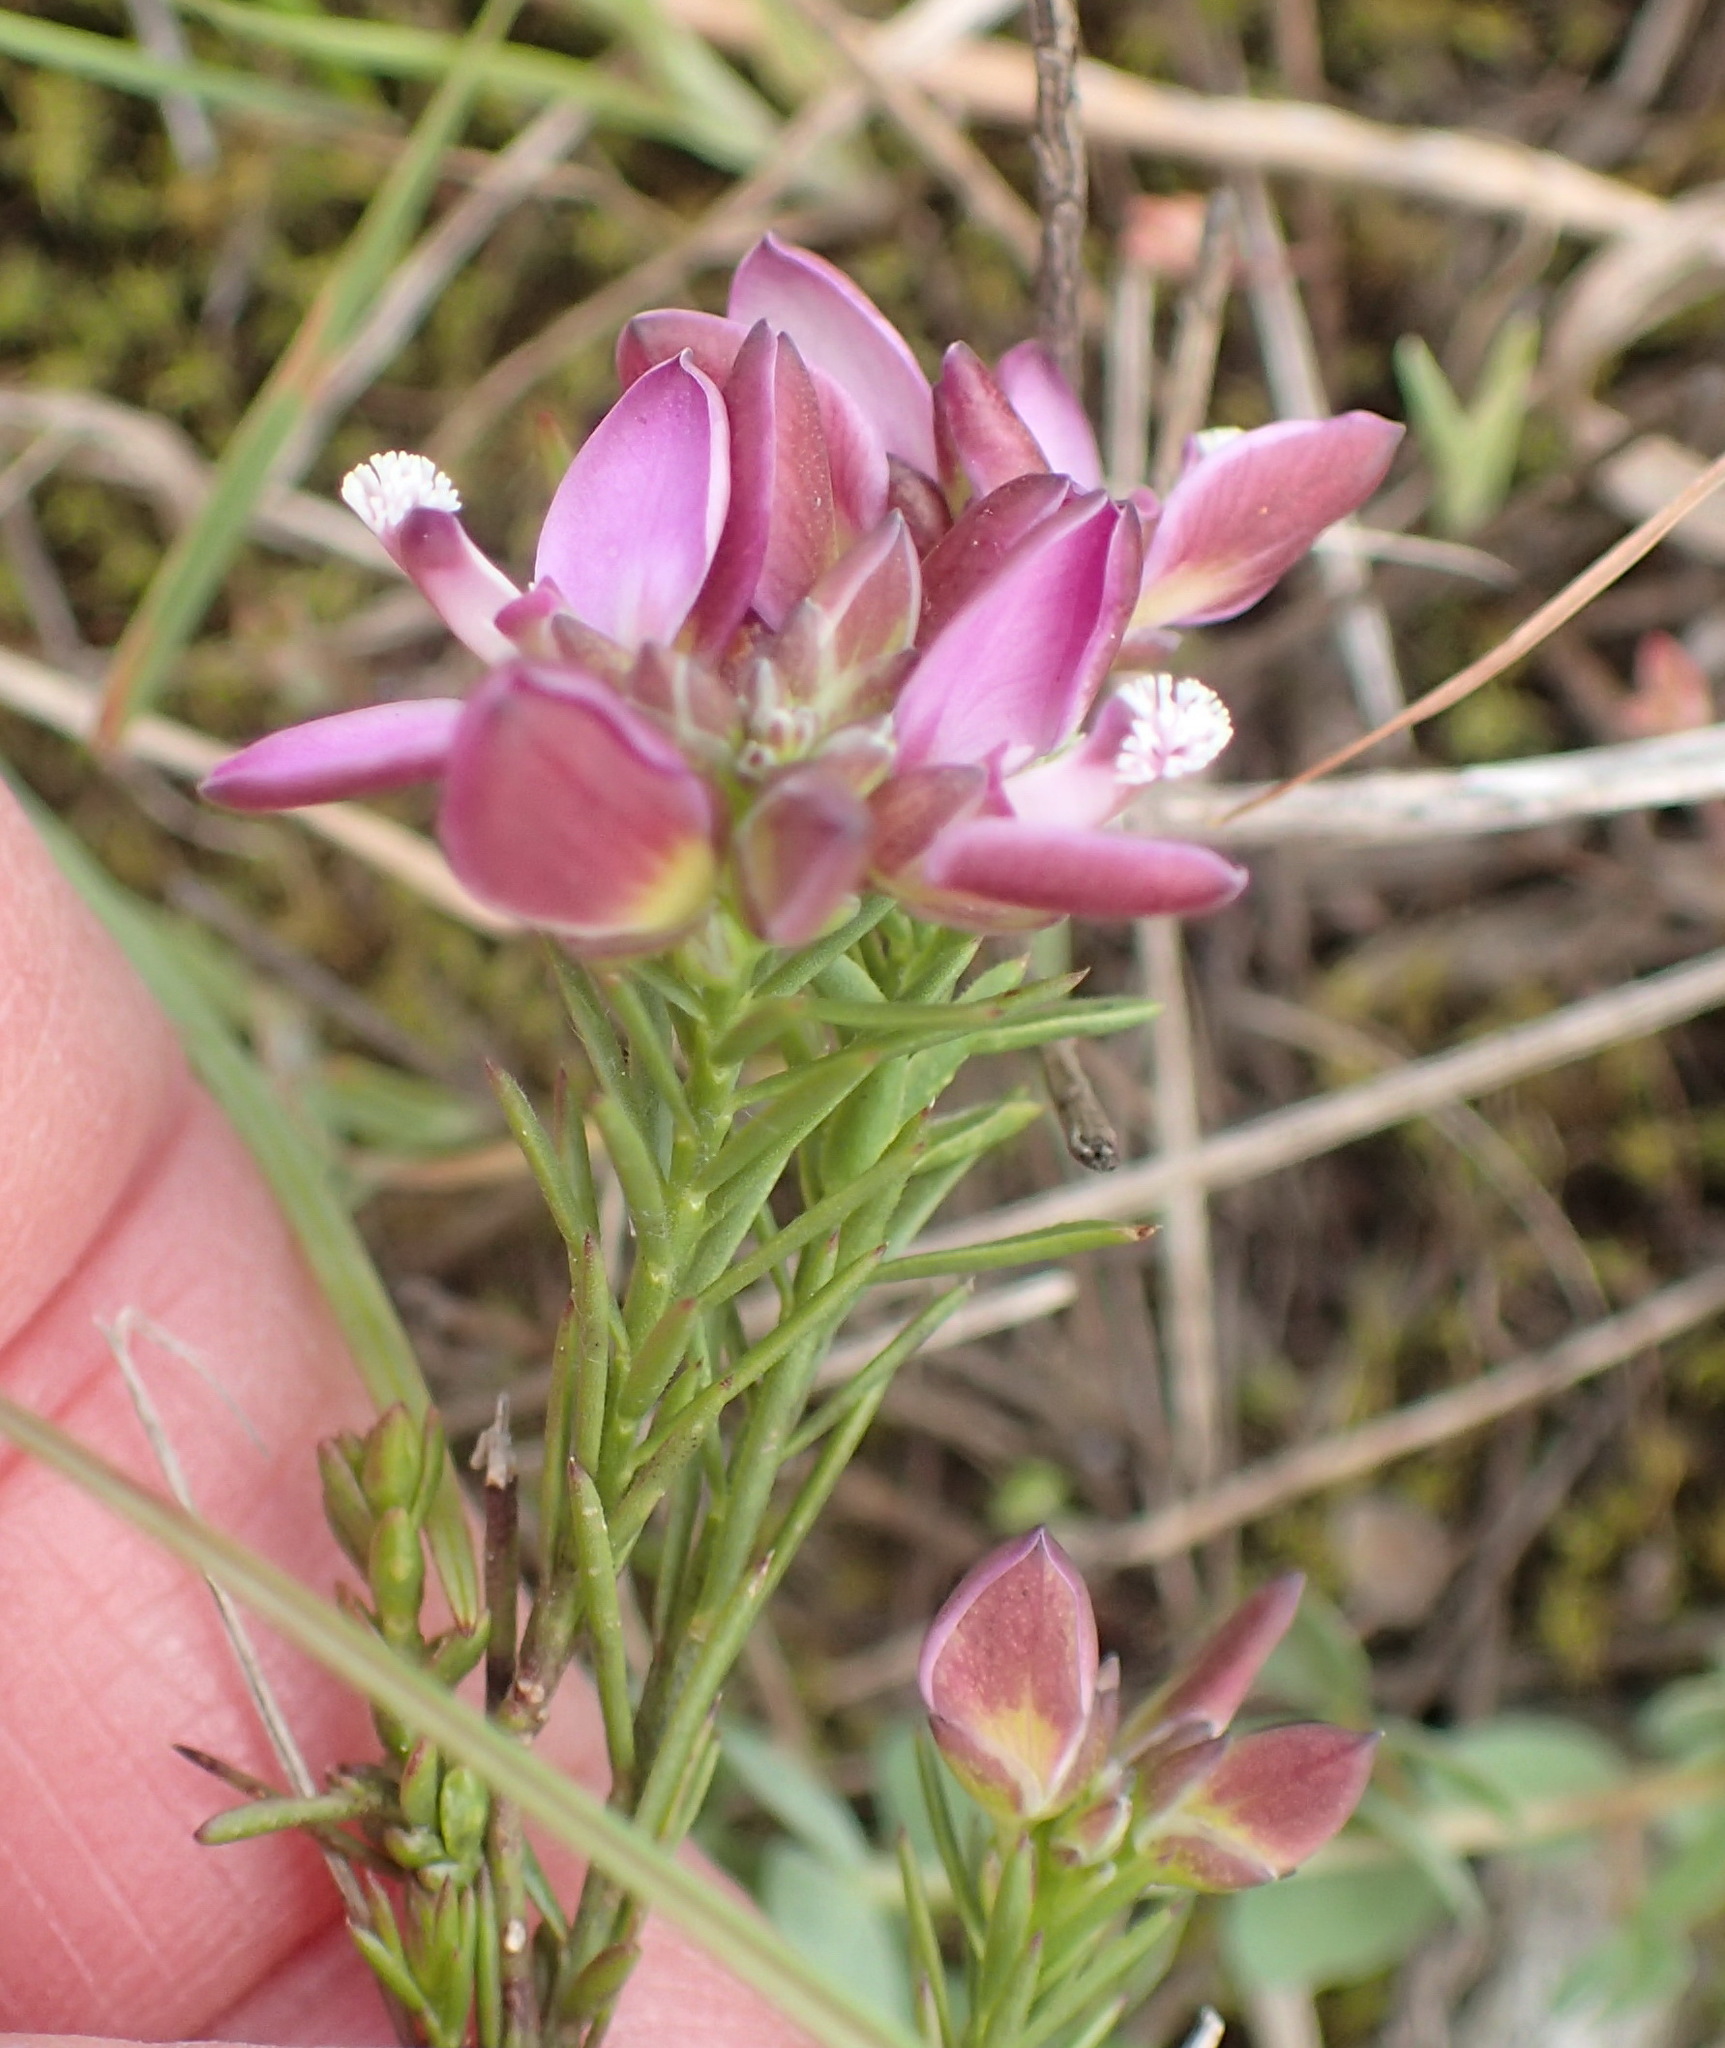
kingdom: Plantae
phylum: Tracheophyta
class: Magnoliopsida
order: Fabales
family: Polygalaceae
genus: Polygala
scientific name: Polygala umbellata
